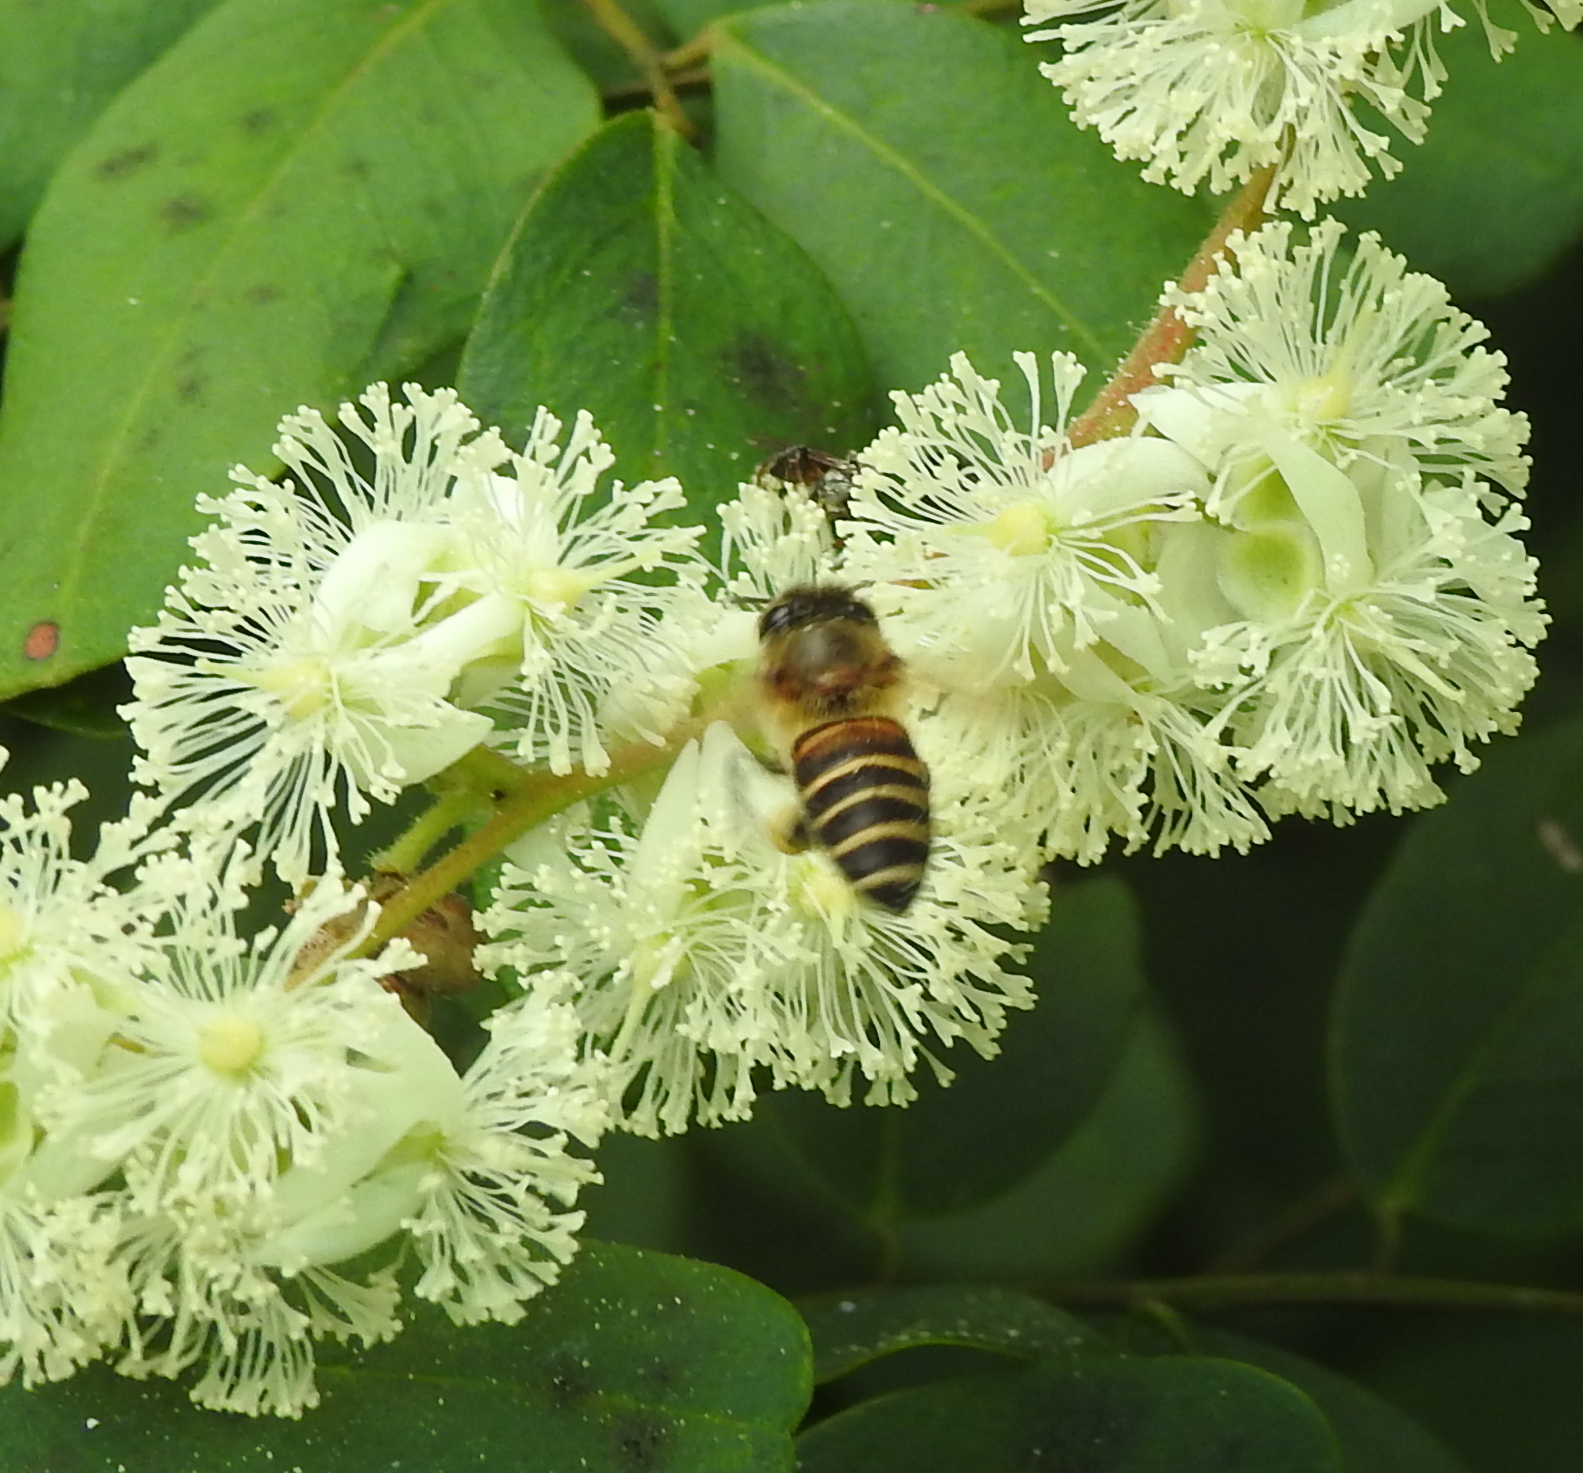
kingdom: Animalia
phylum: Arthropoda
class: Insecta
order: Hymenoptera
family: Apidae
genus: Apis
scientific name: Apis cerana
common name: Honey bee
